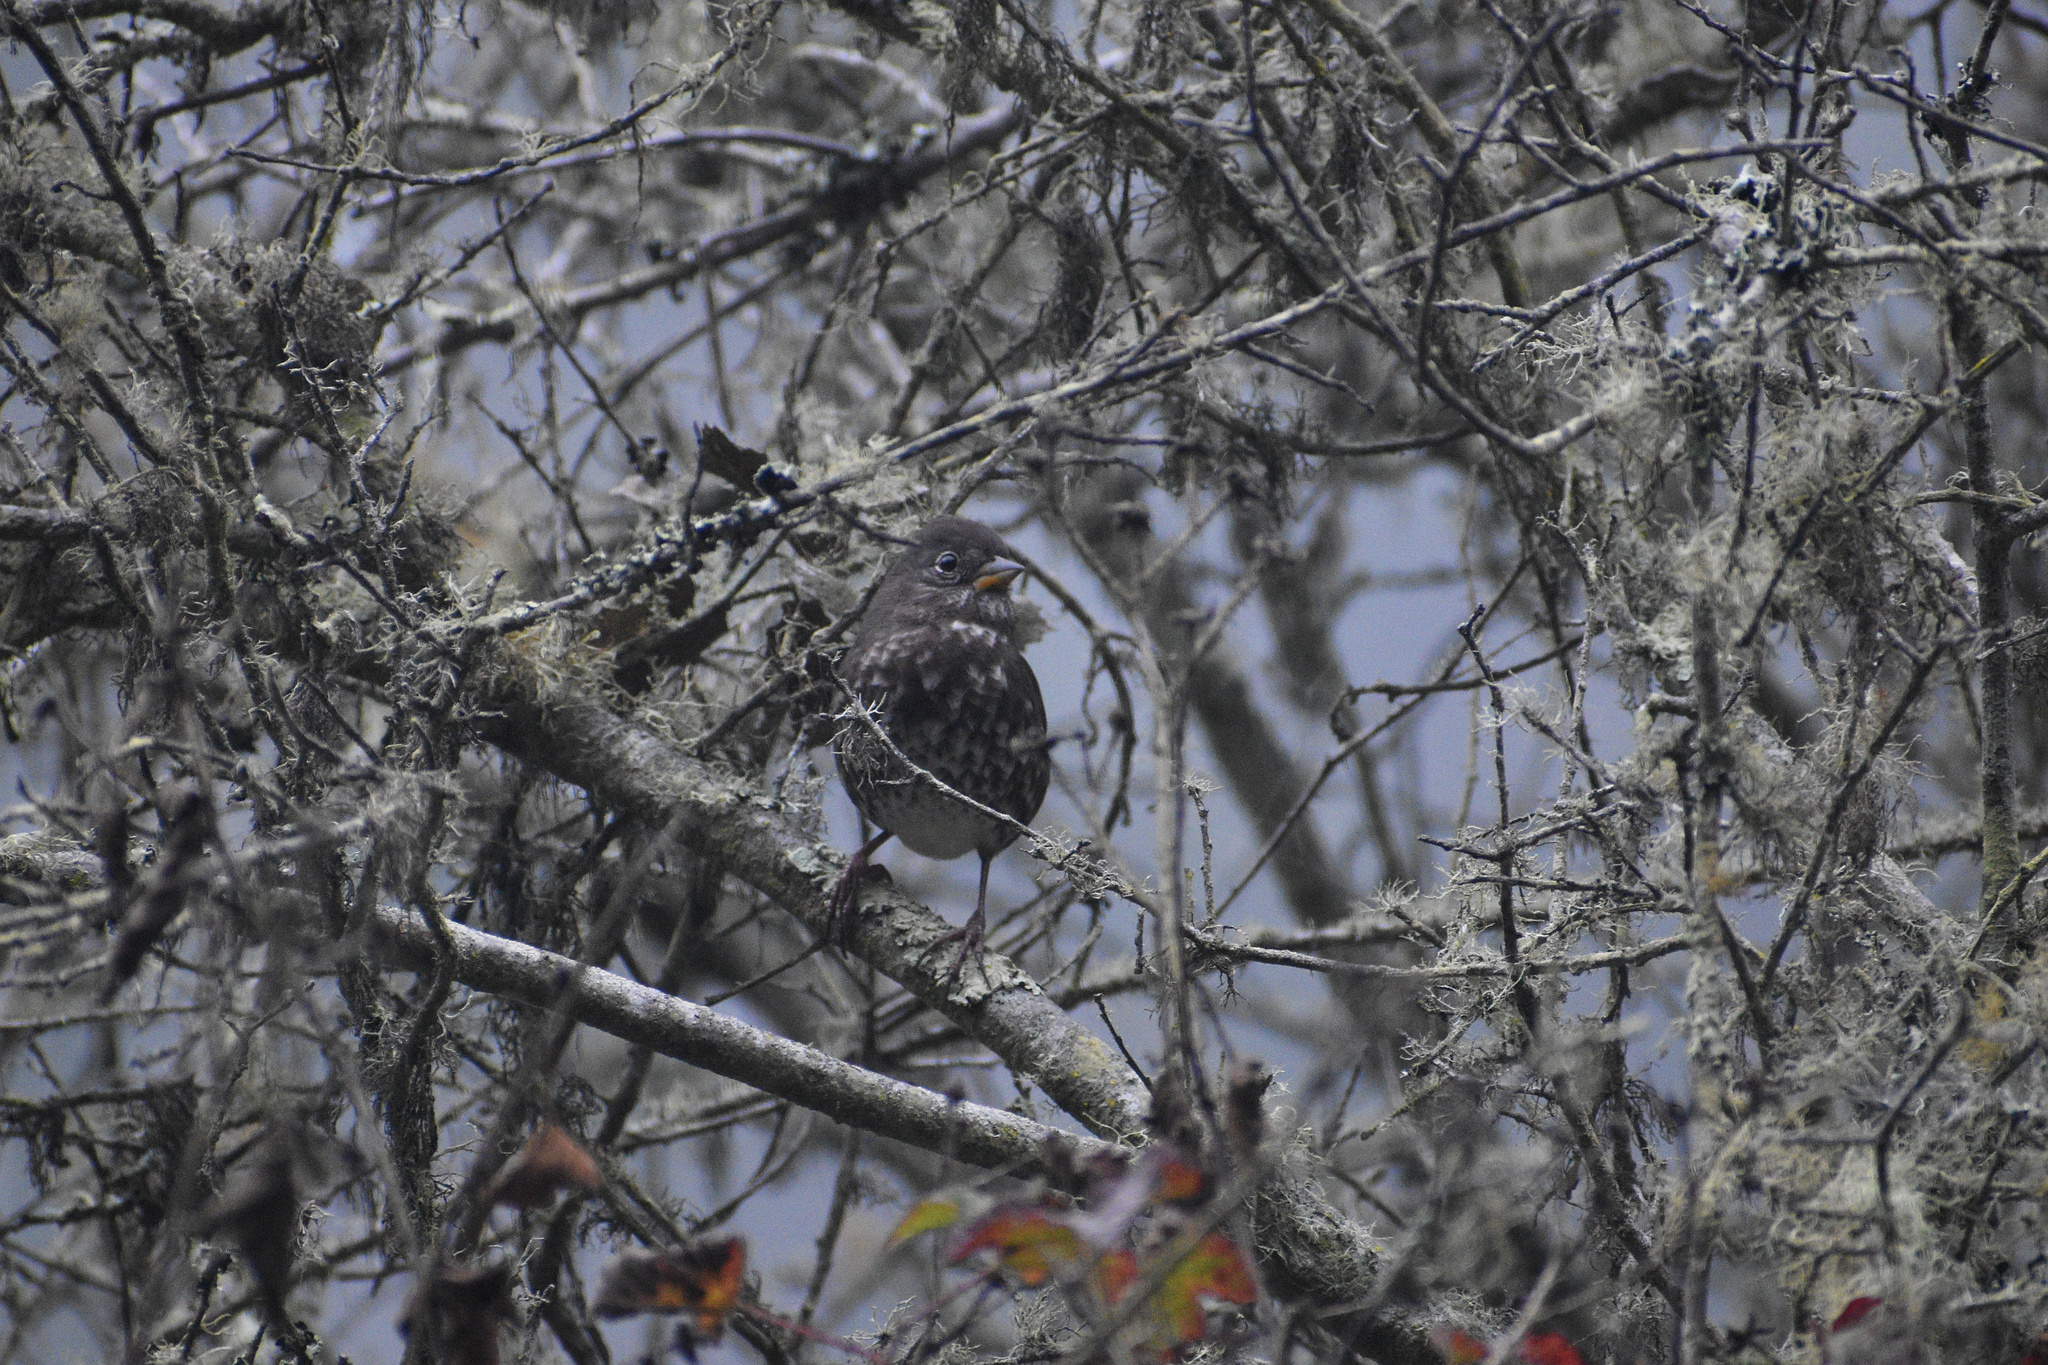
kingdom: Animalia
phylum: Chordata
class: Aves
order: Passeriformes
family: Passerellidae
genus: Passerella
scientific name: Passerella iliaca
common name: Fox sparrow
